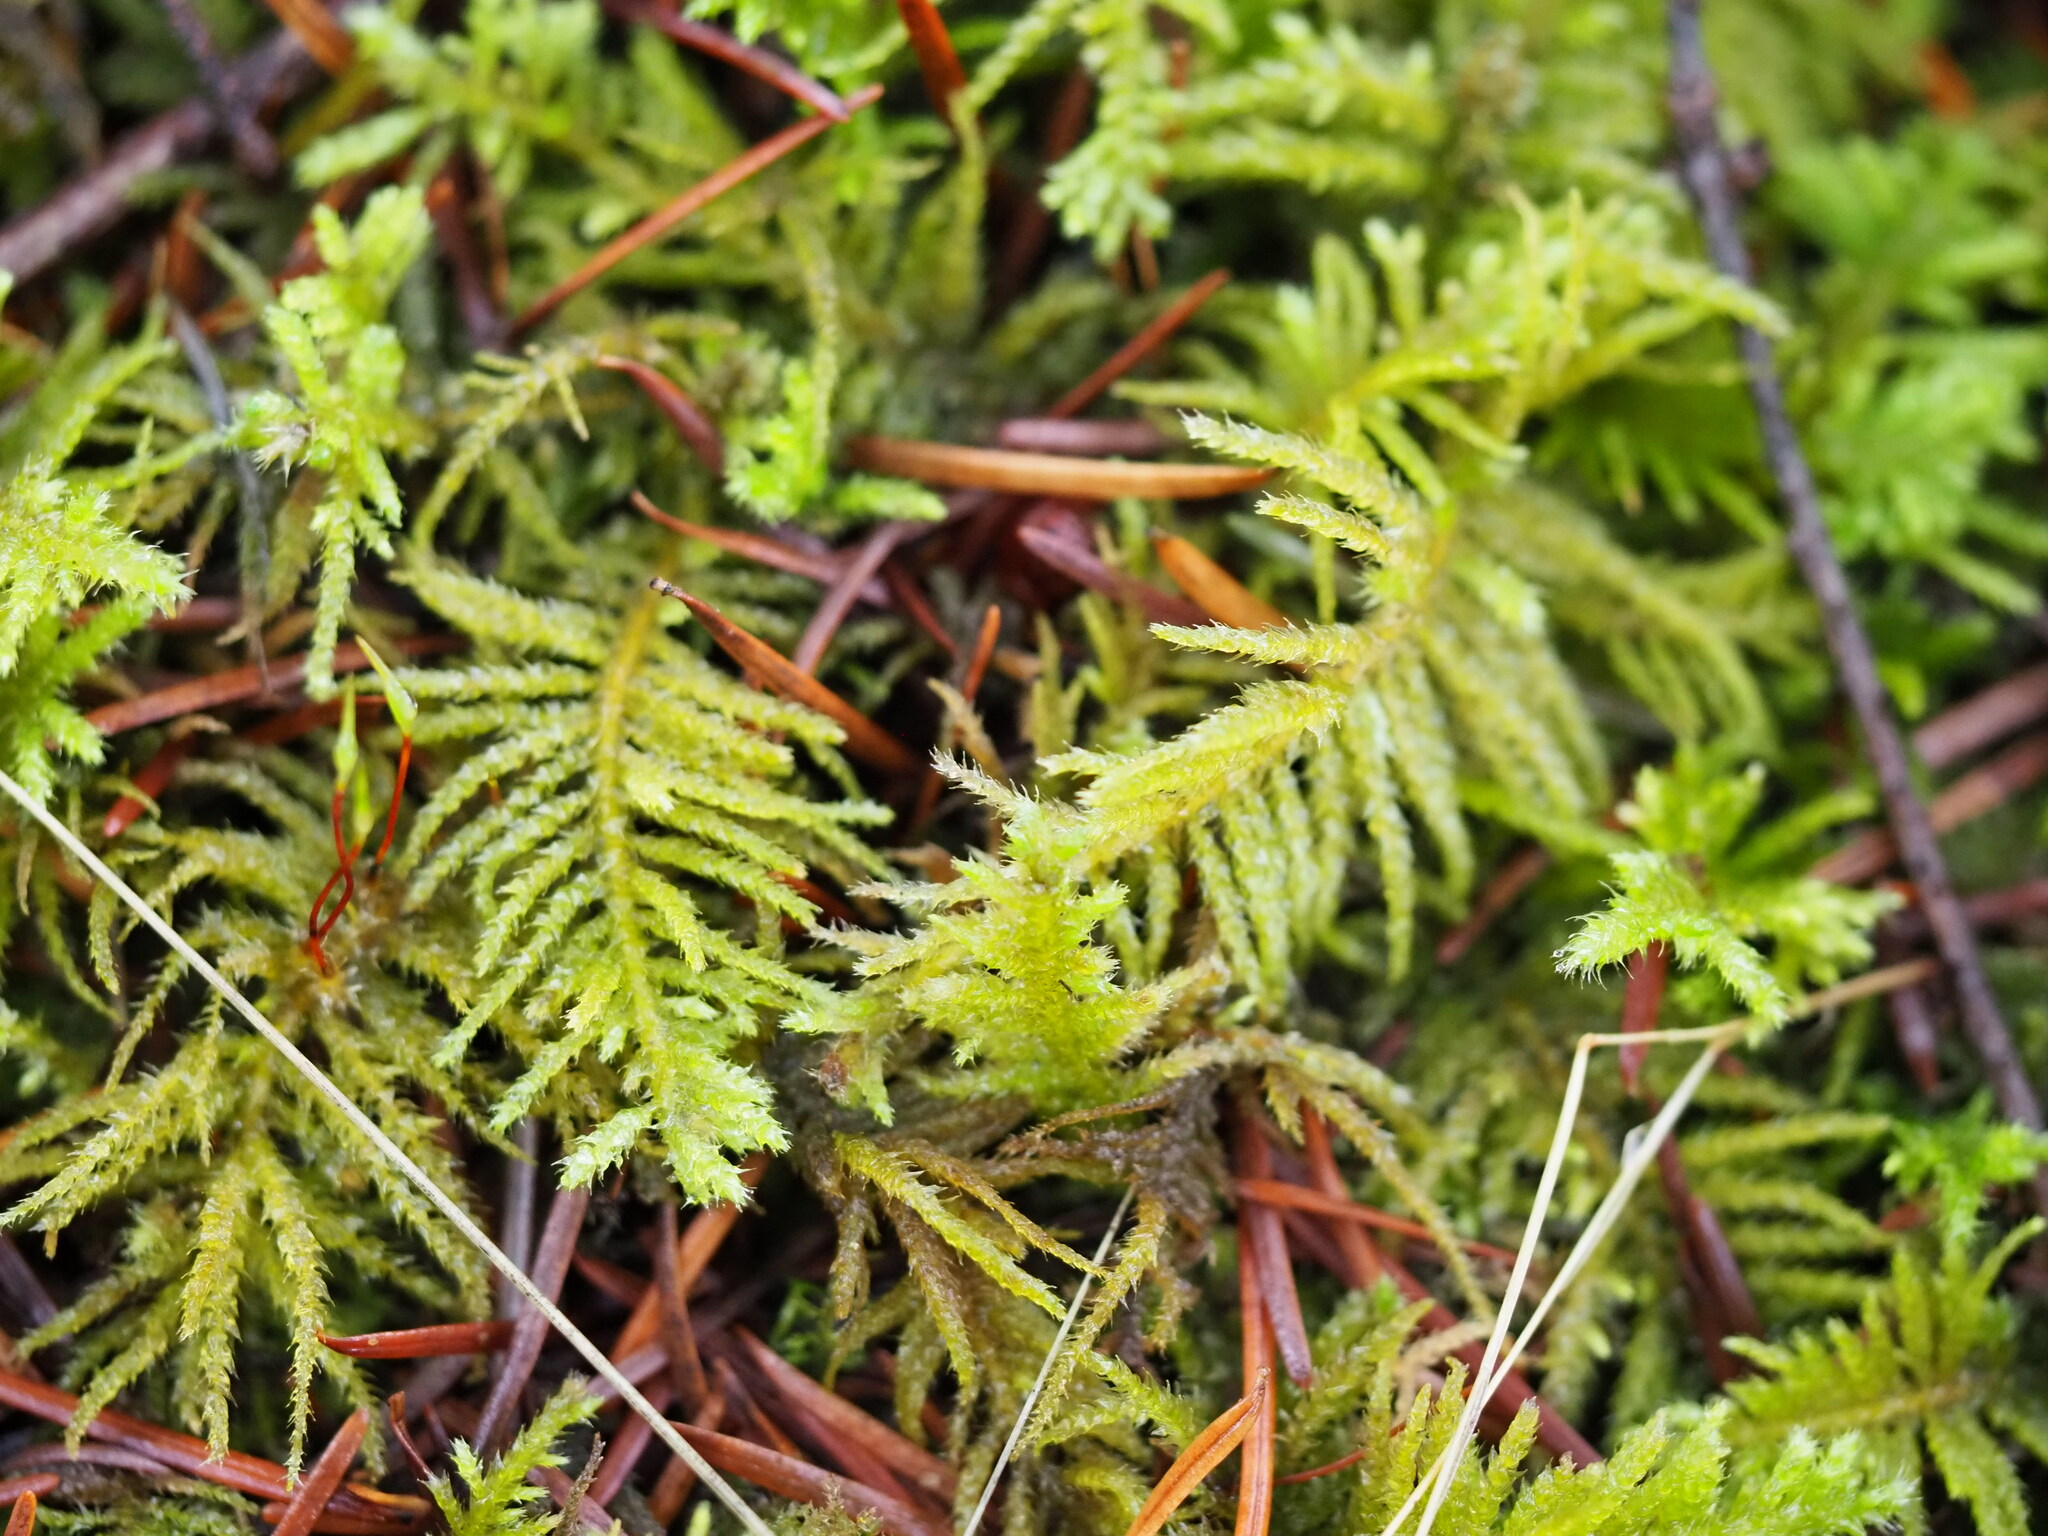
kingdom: Plantae
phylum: Bryophyta
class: Bryopsida
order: Hypnales
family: Brachytheciaceae
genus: Kindbergia
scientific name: Kindbergia oregana
